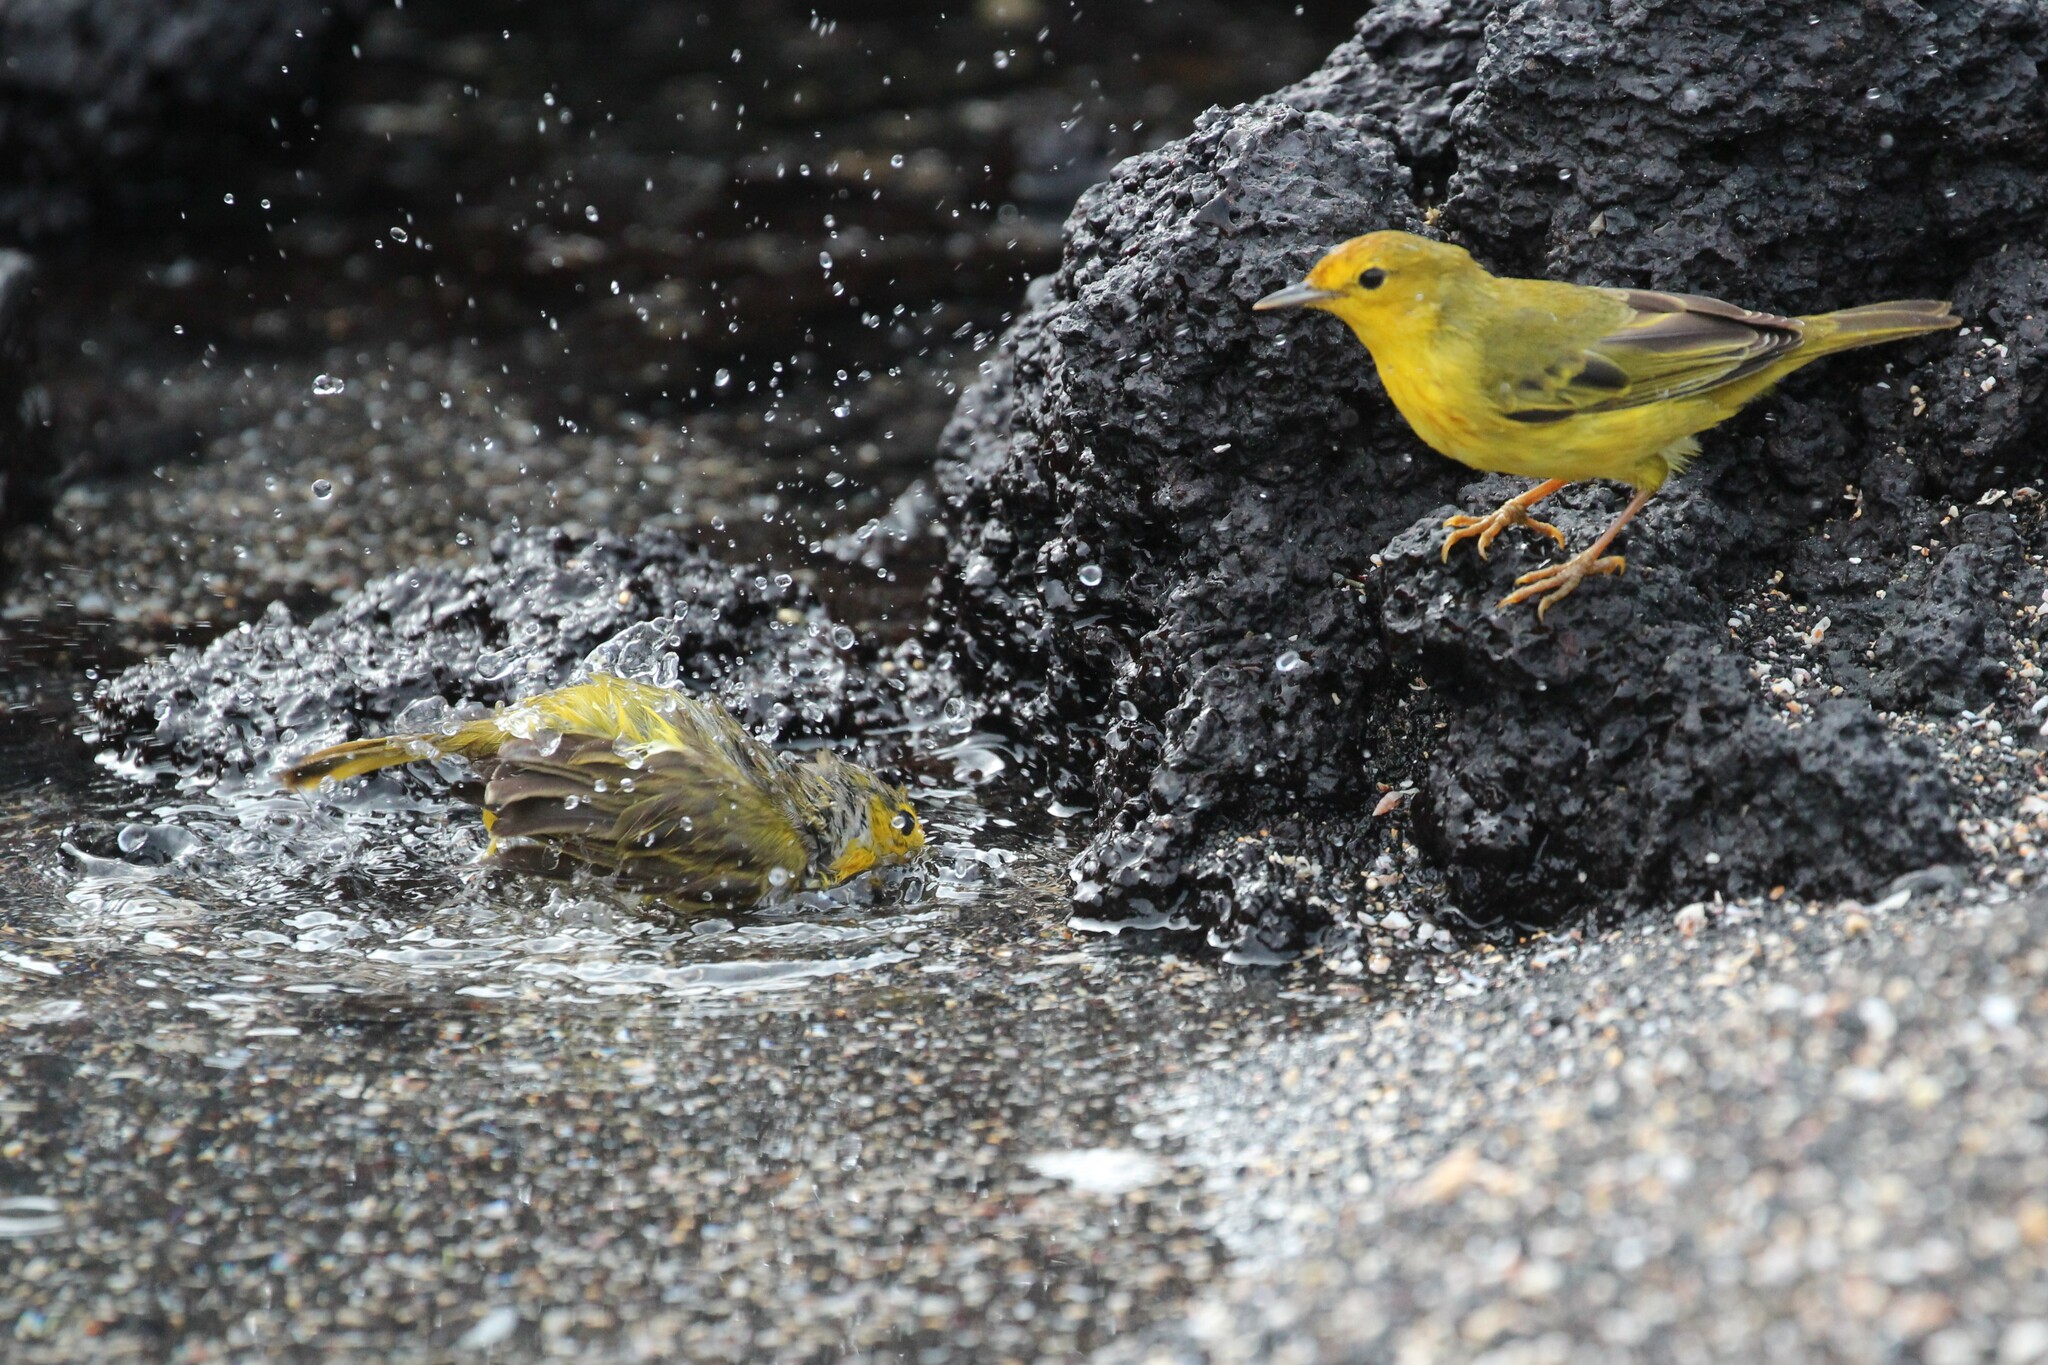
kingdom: Animalia
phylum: Chordata
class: Aves
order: Passeriformes
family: Parulidae
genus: Setophaga
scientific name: Setophaga petechia
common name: Yellow warbler
